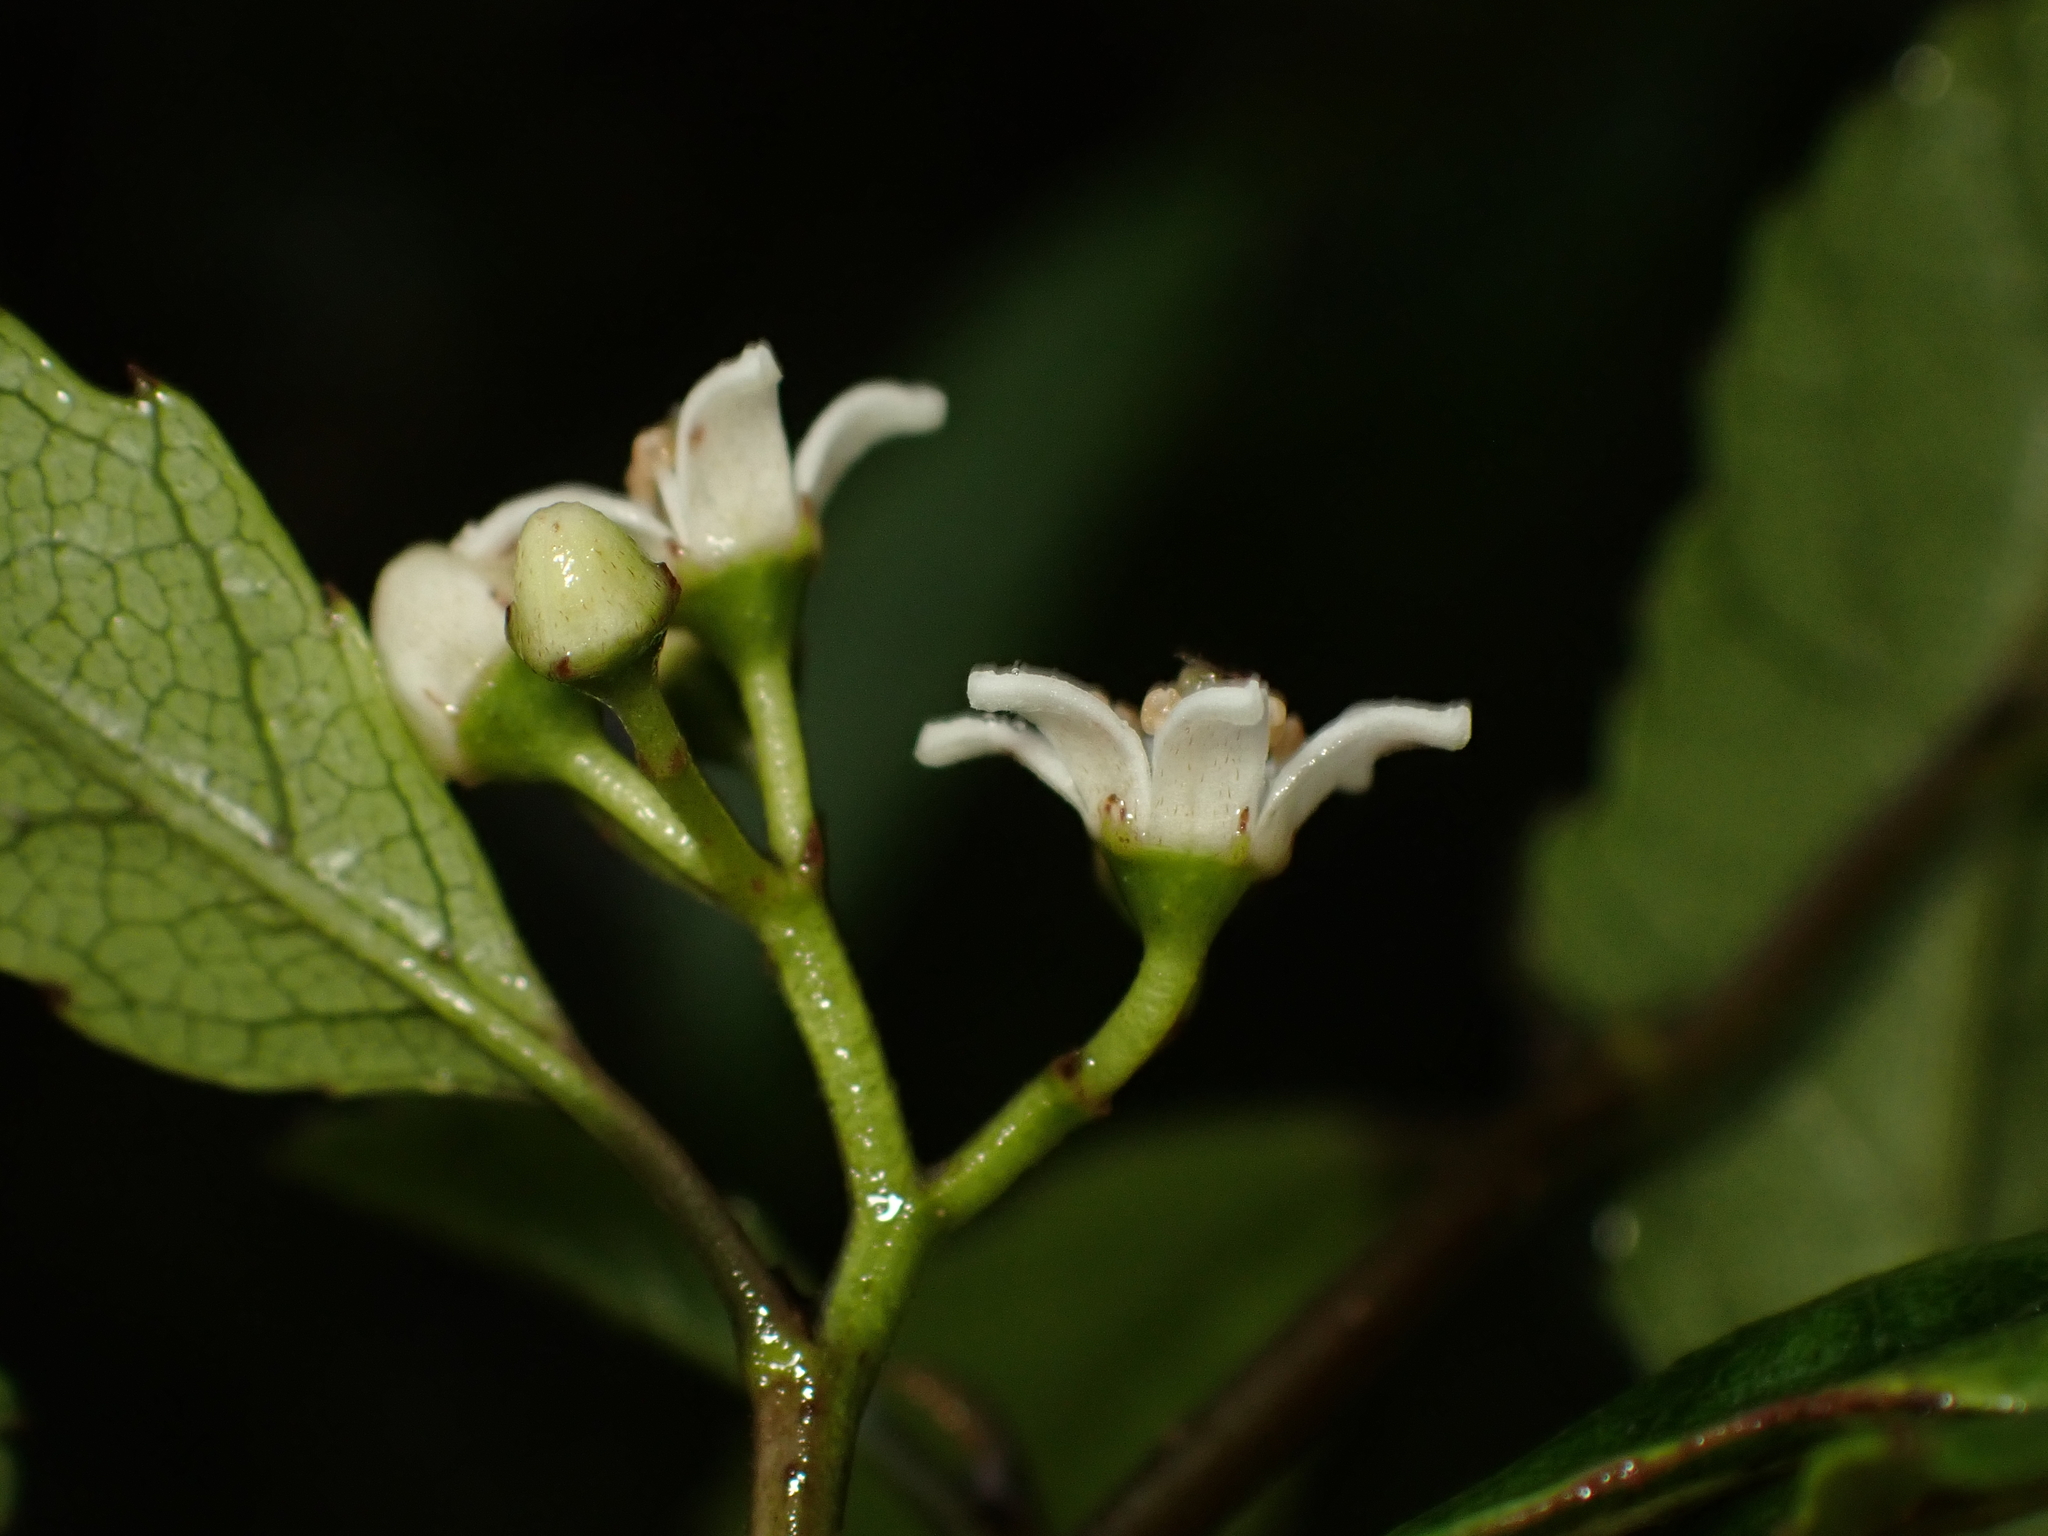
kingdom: Plantae
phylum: Tracheophyta
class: Magnoliopsida
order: Asterales
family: Rousseaceae
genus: Carpodetus
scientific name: Carpodetus serratus
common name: White mapau
